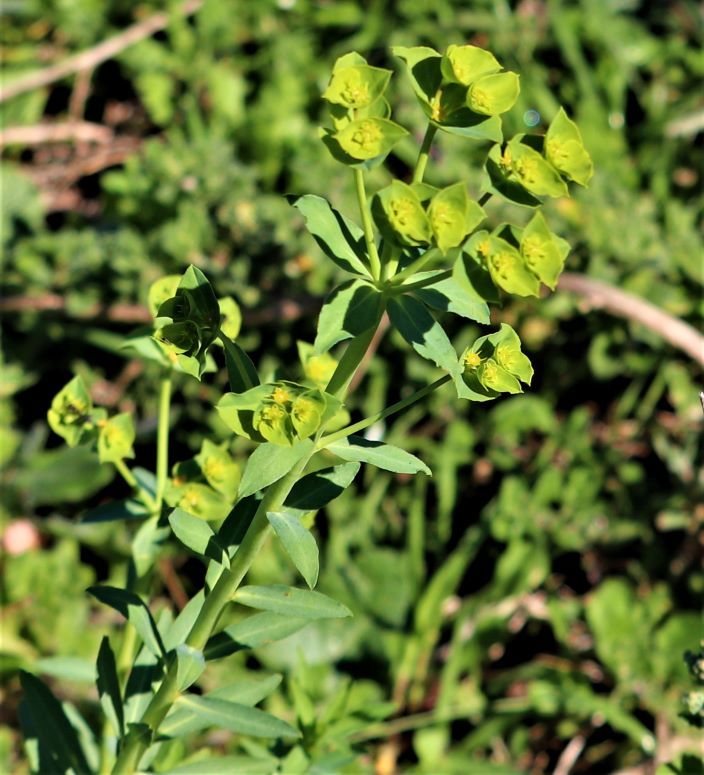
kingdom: Plantae
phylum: Tracheophyta
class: Magnoliopsida
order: Malpighiales
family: Euphorbiaceae
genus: Euphorbia
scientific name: Euphorbia terracina
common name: Geraldton carnation weed
